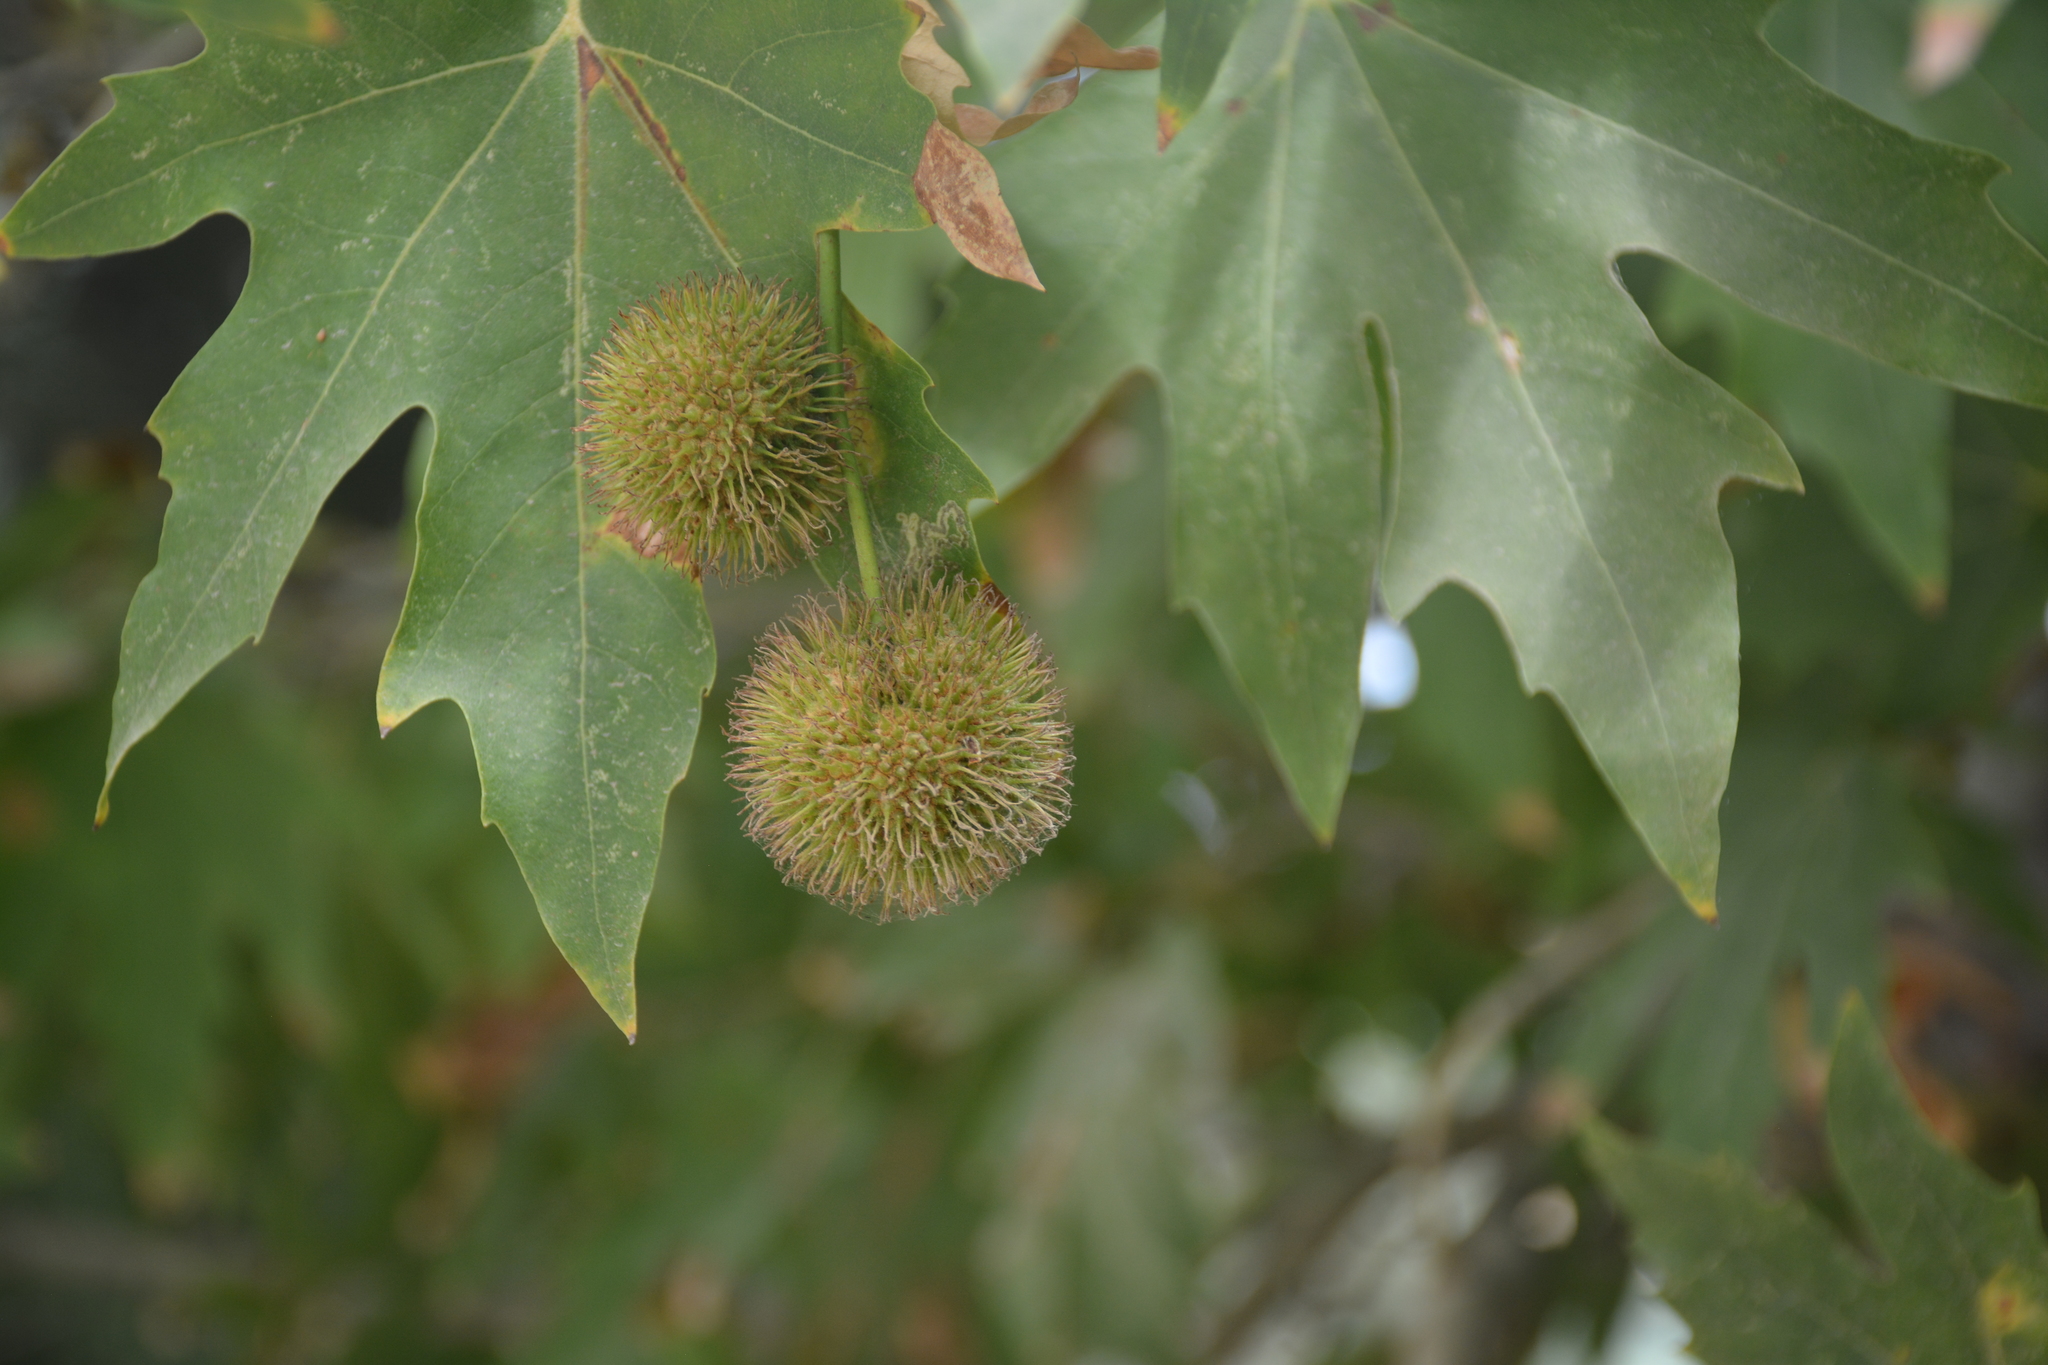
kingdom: Plantae
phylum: Tracheophyta
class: Magnoliopsida
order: Proteales
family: Platanaceae
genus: Platanus
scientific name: Platanus orientalis
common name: Oriental plane
